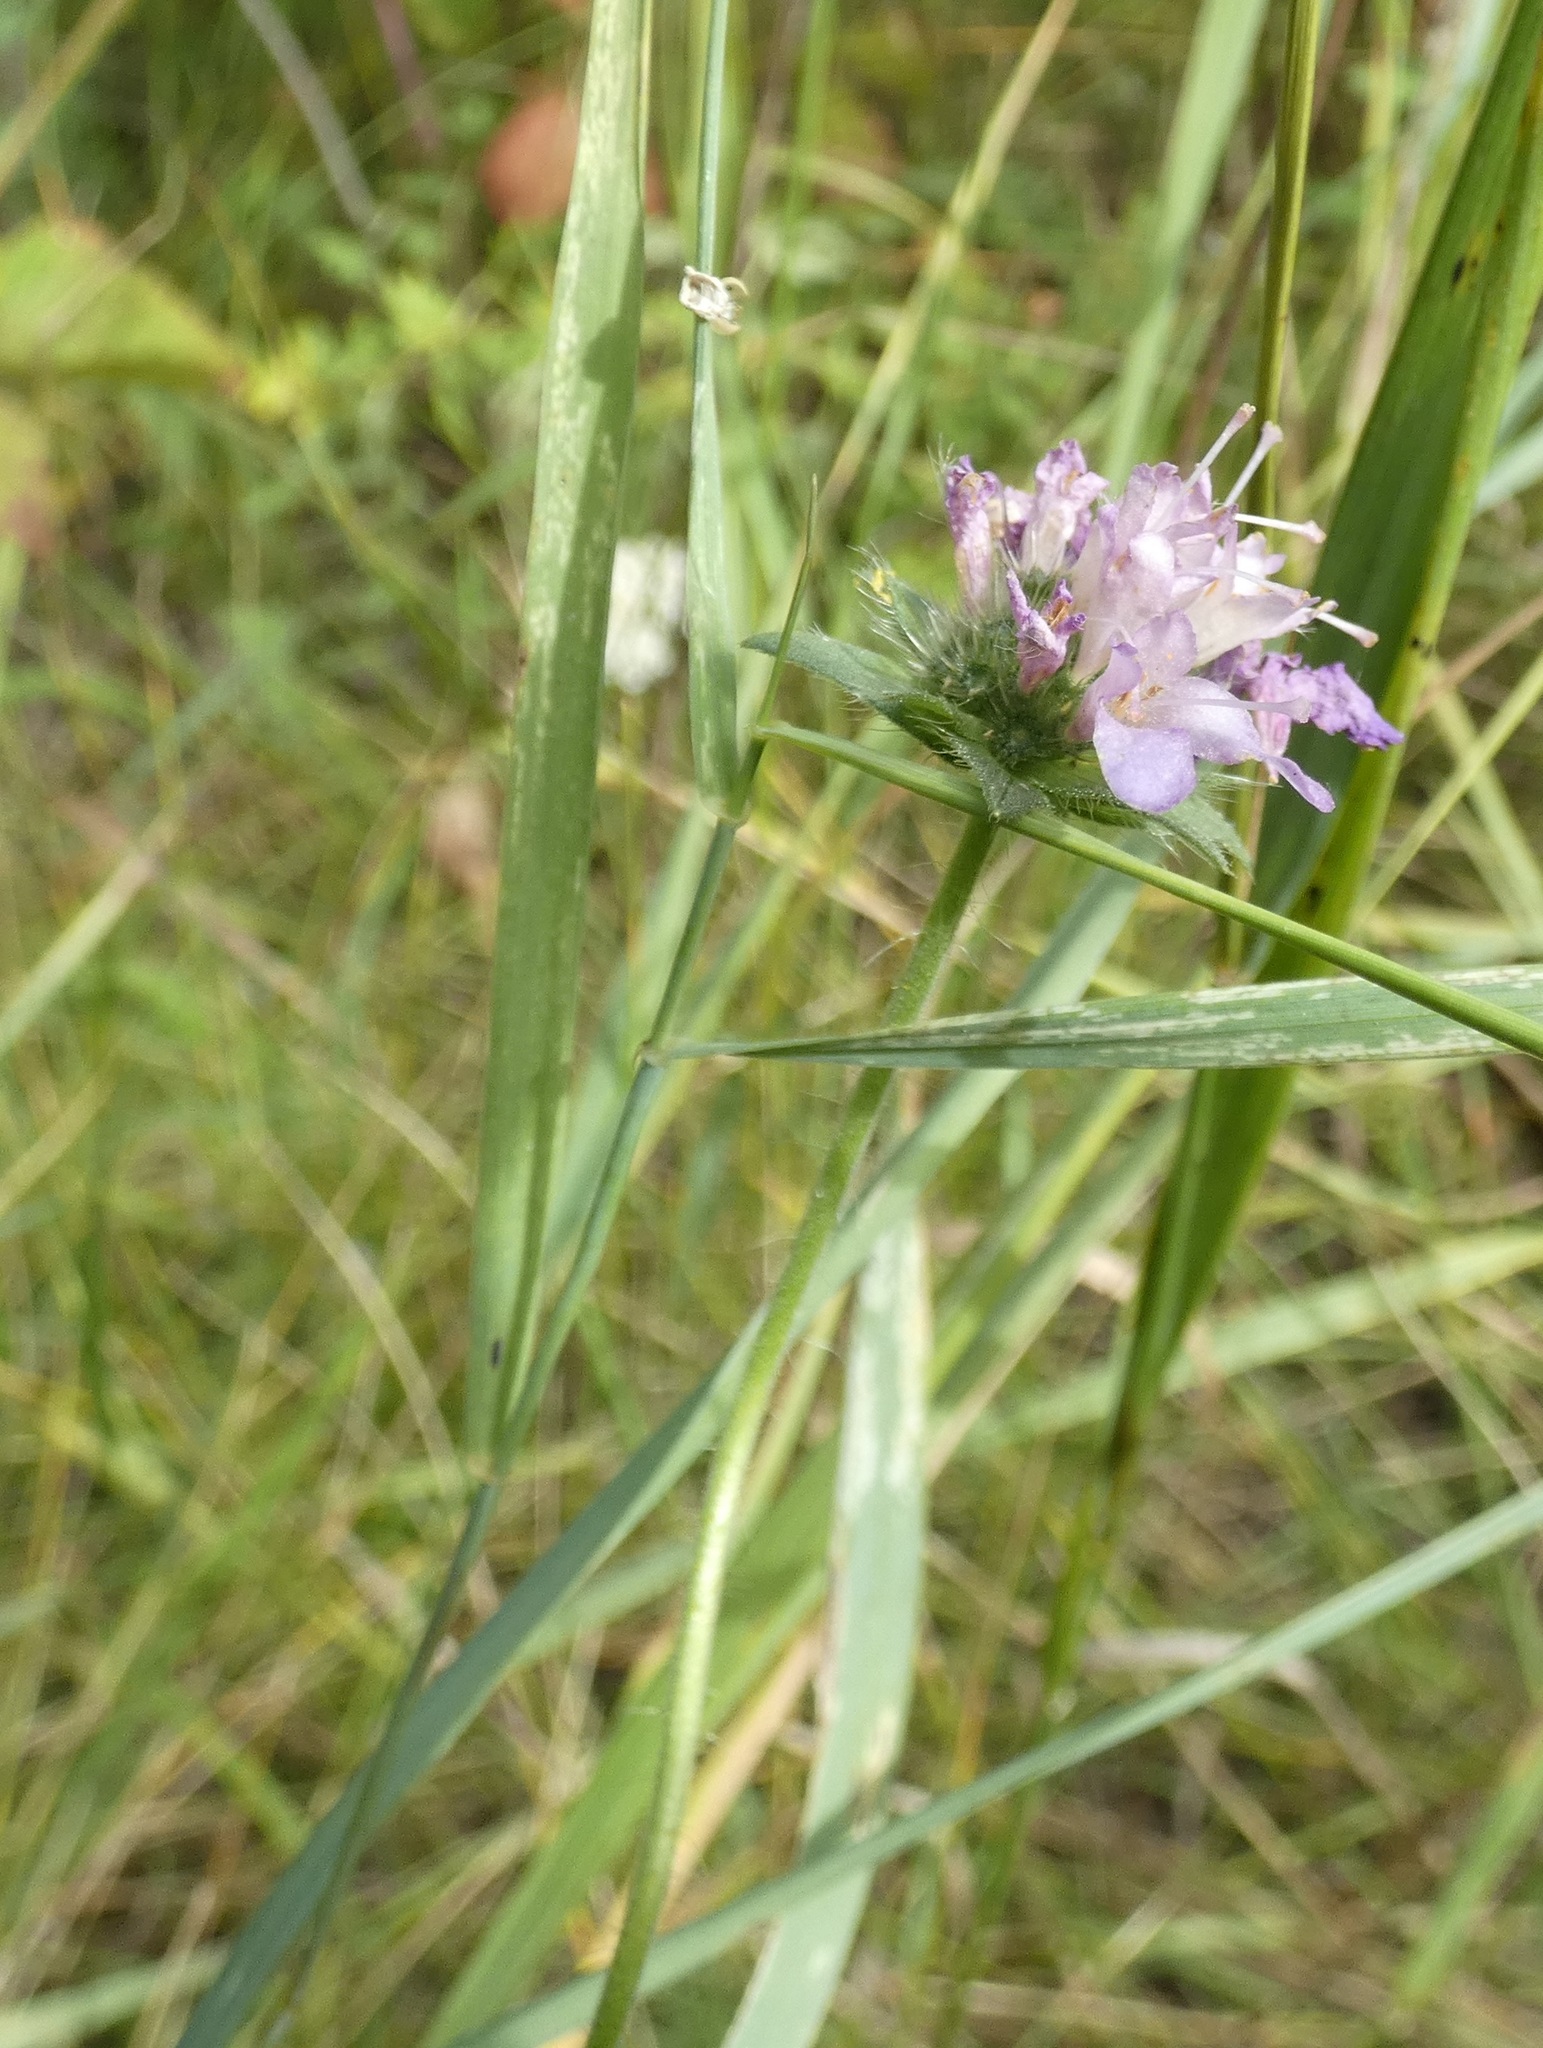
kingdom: Plantae
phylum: Tracheophyta
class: Magnoliopsida
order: Dipsacales
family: Caprifoliaceae
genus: Knautia
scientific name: Knautia arvensis
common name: Field scabiosa
